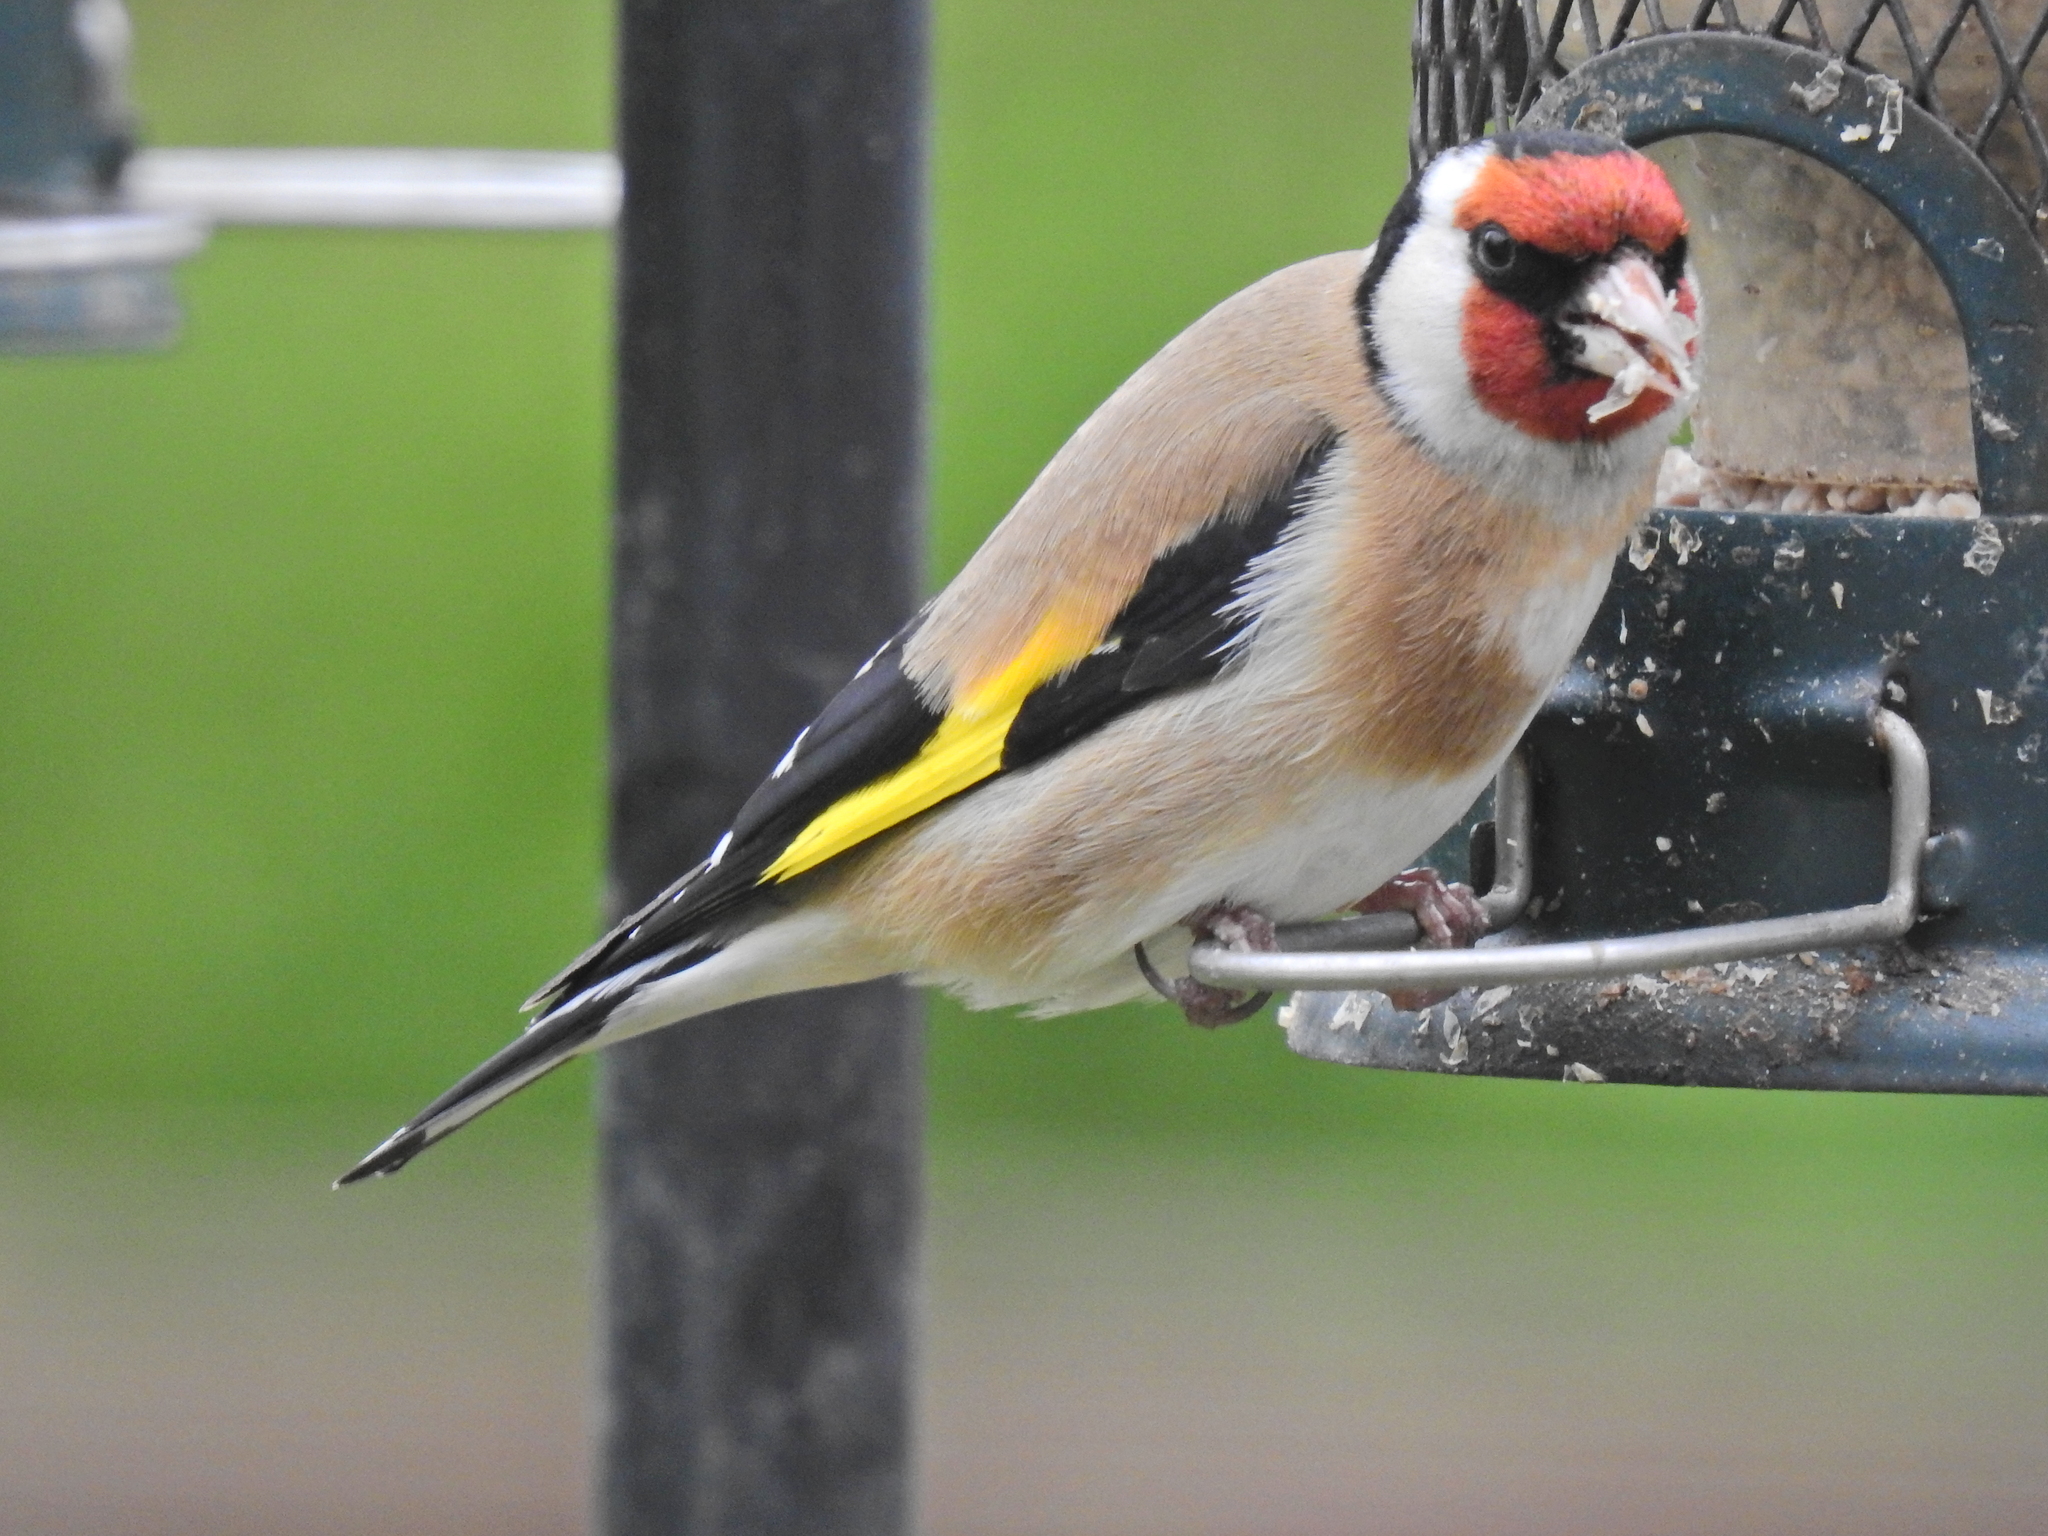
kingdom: Animalia
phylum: Chordata
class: Aves
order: Passeriformes
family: Fringillidae
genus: Carduelis
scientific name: Carduelis carduelis
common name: European goldfinch
